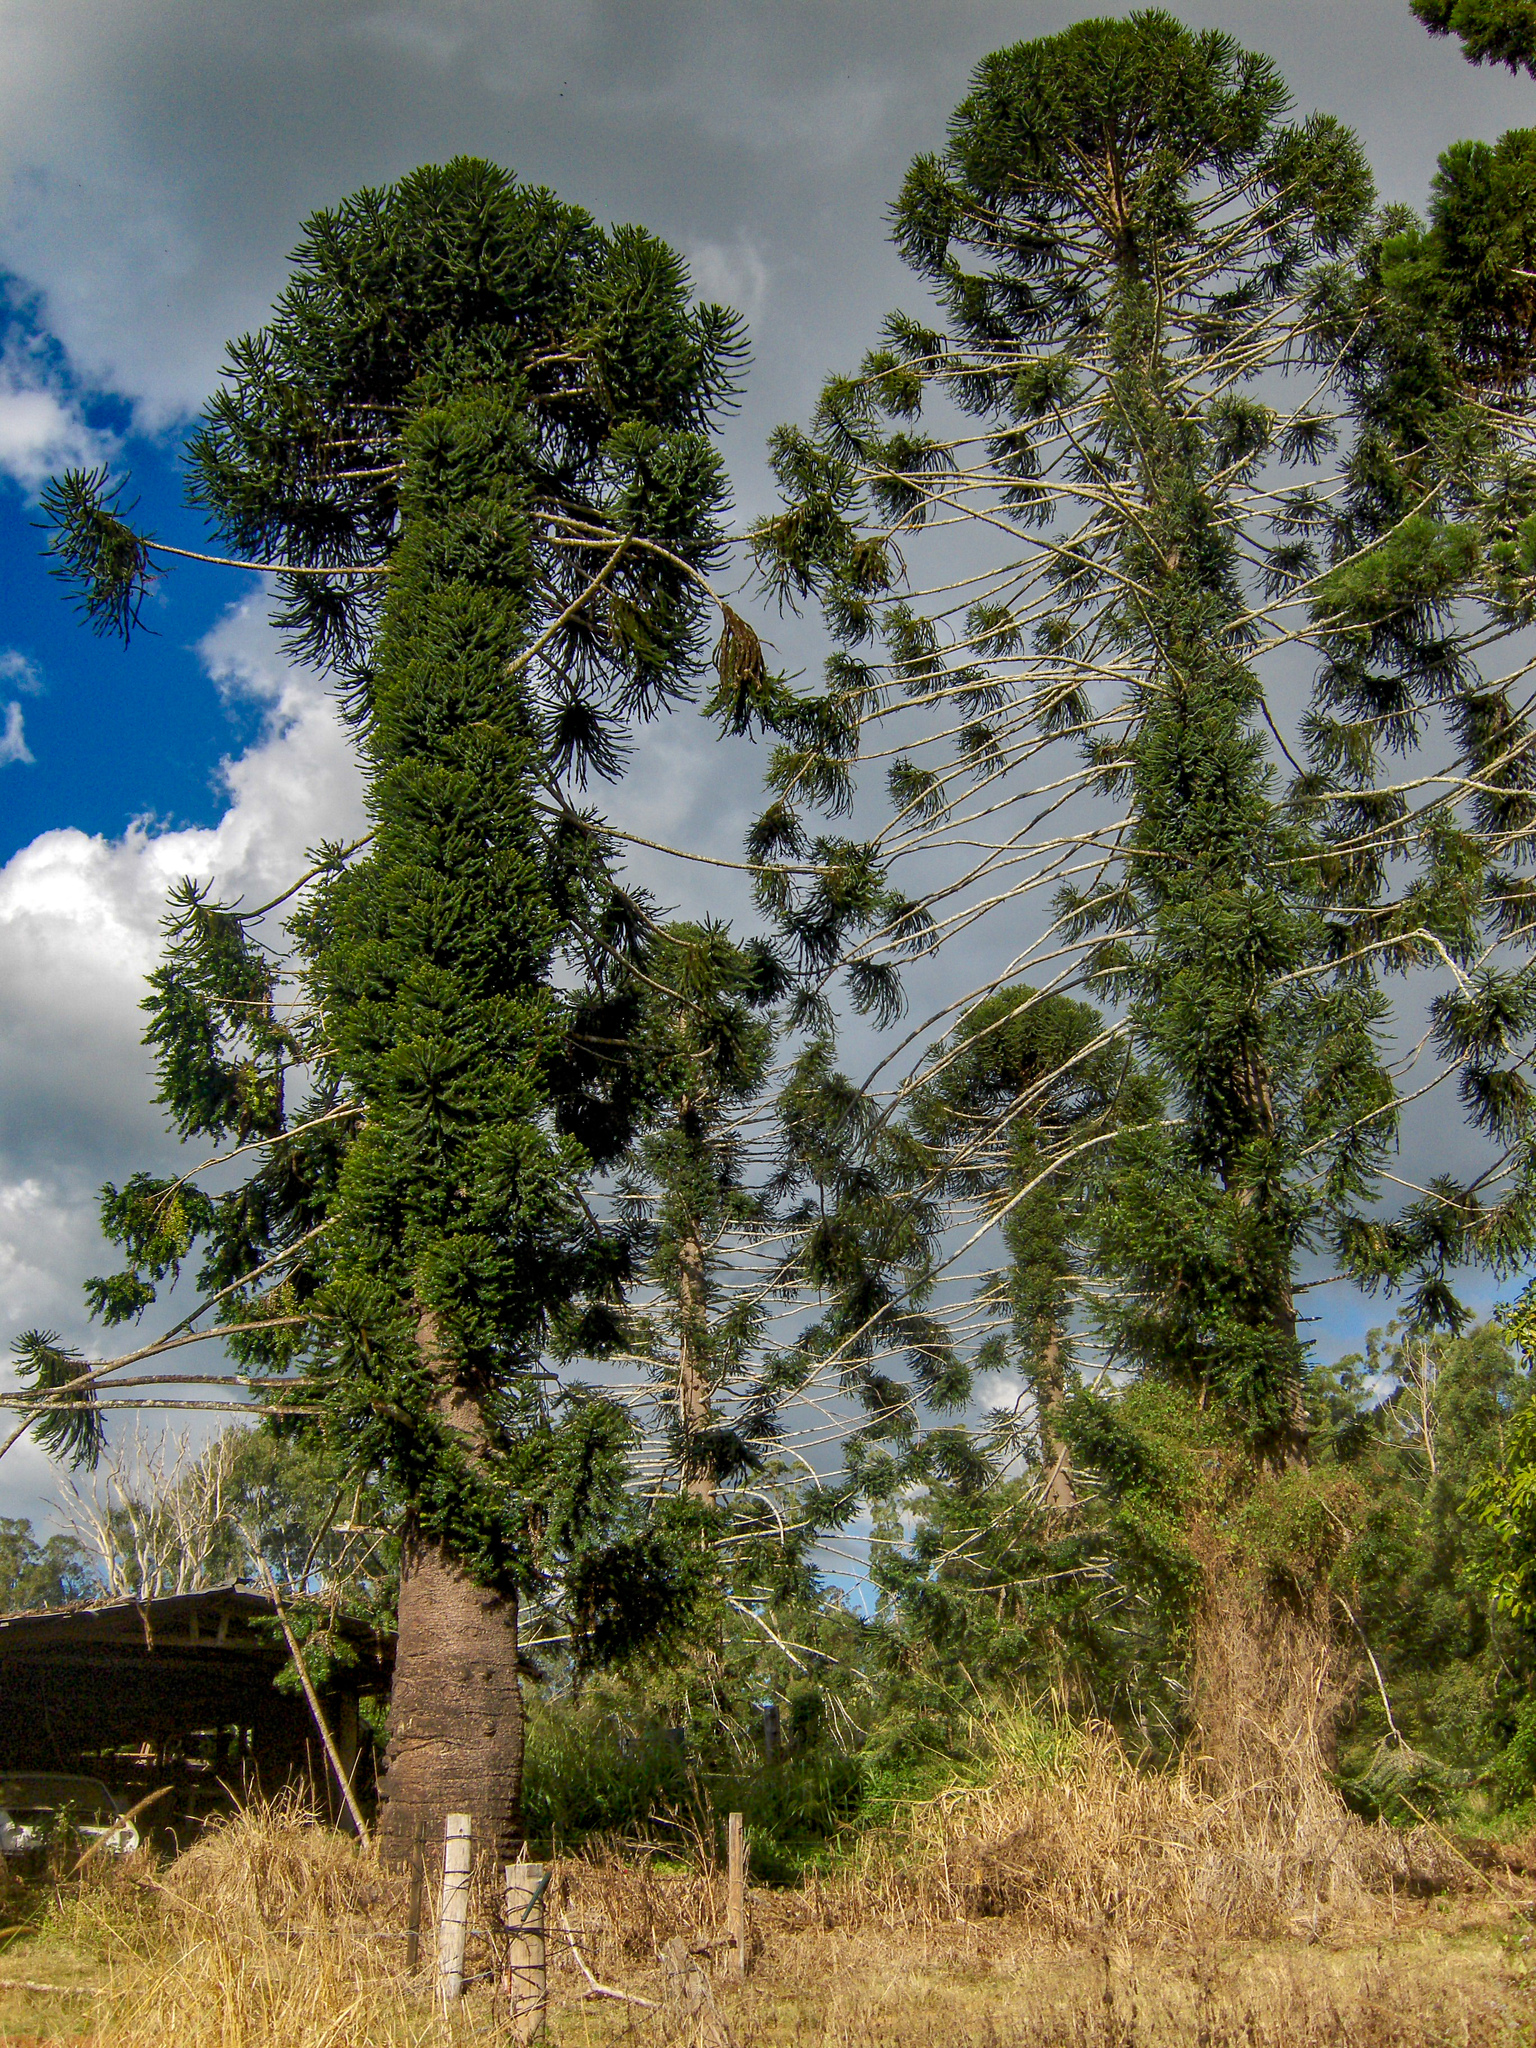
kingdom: Plantae
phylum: Tracheophyta
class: Pinopsida
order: Pinales
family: Araucariaceae
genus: Araucaria
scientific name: Araucaria bidwillii
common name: Moreton-bay-pine
